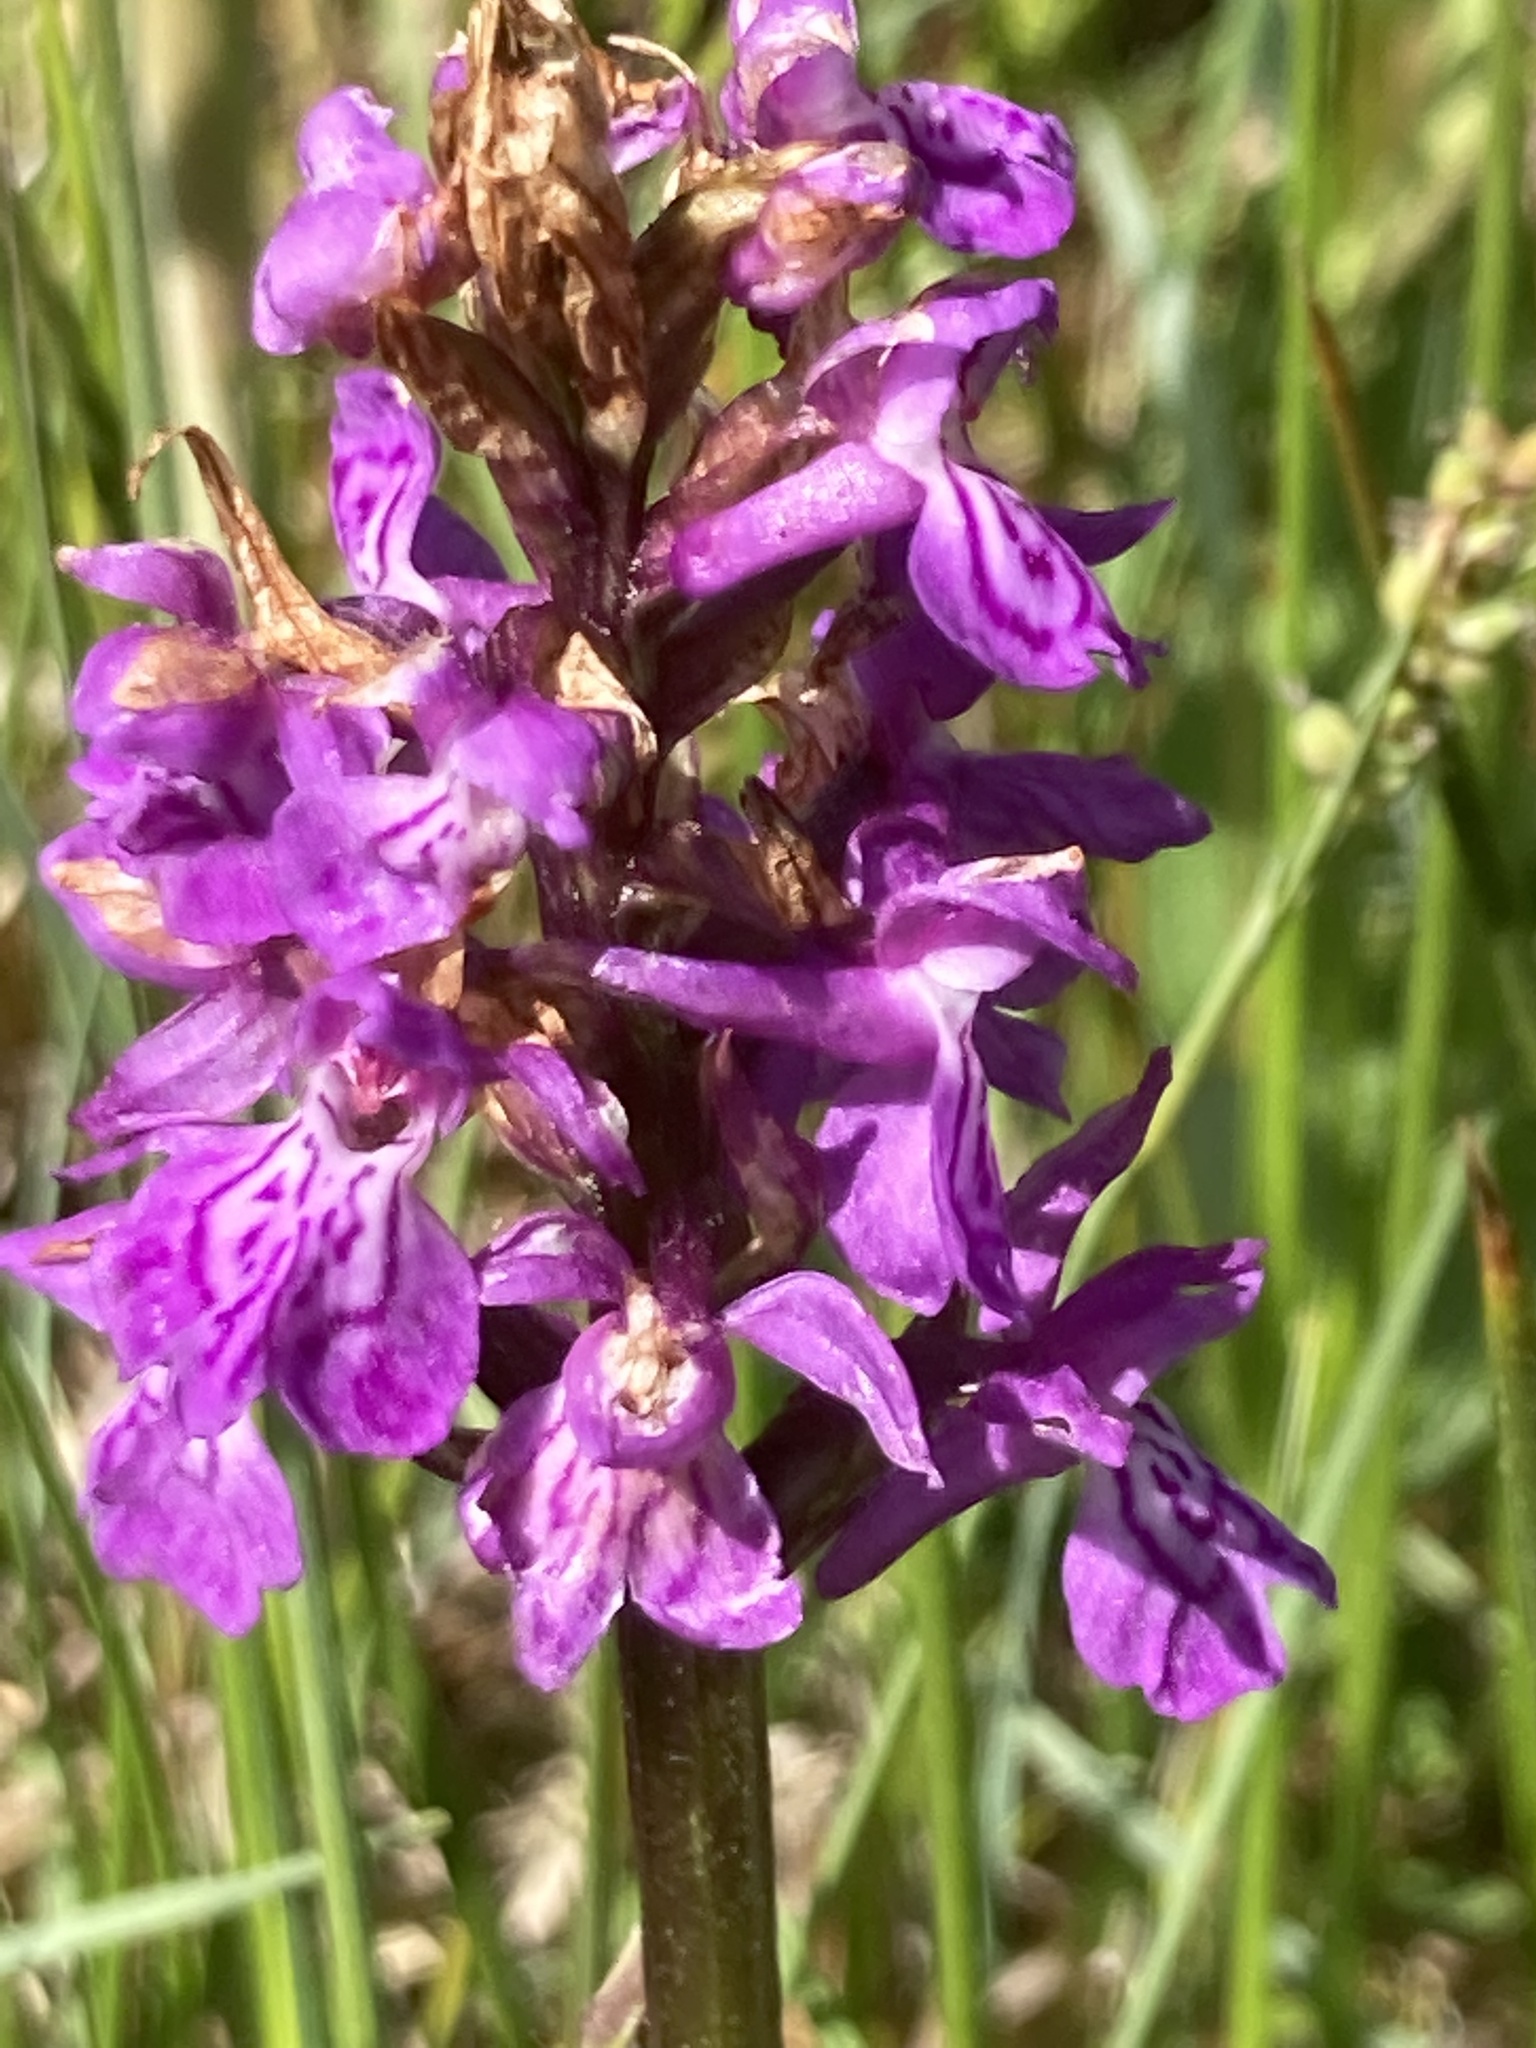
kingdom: Plantae
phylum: Tracheophyta
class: Liliopsida
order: Asparagales
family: Orchidaceae
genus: Dactylorhiza
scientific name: Dactylorhiza maculata
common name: Heath spotted-orchid
